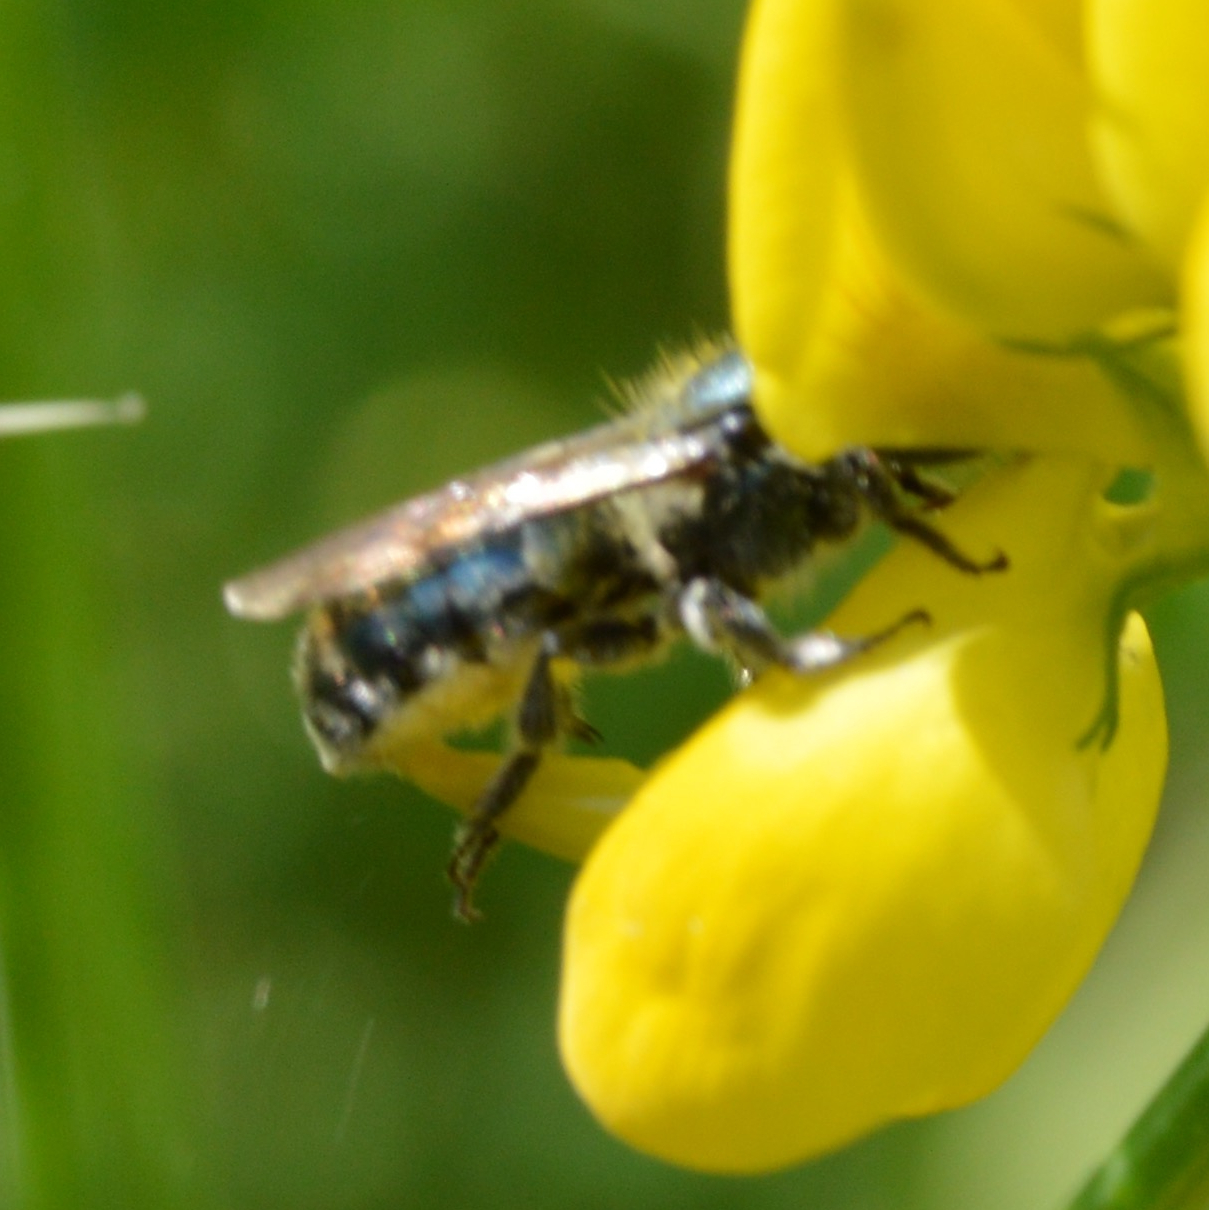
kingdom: Animalia
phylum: Arthropoda
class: Insecta
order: Hymenoptera
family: Megachilidae
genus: Osmia
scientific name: Osmia
